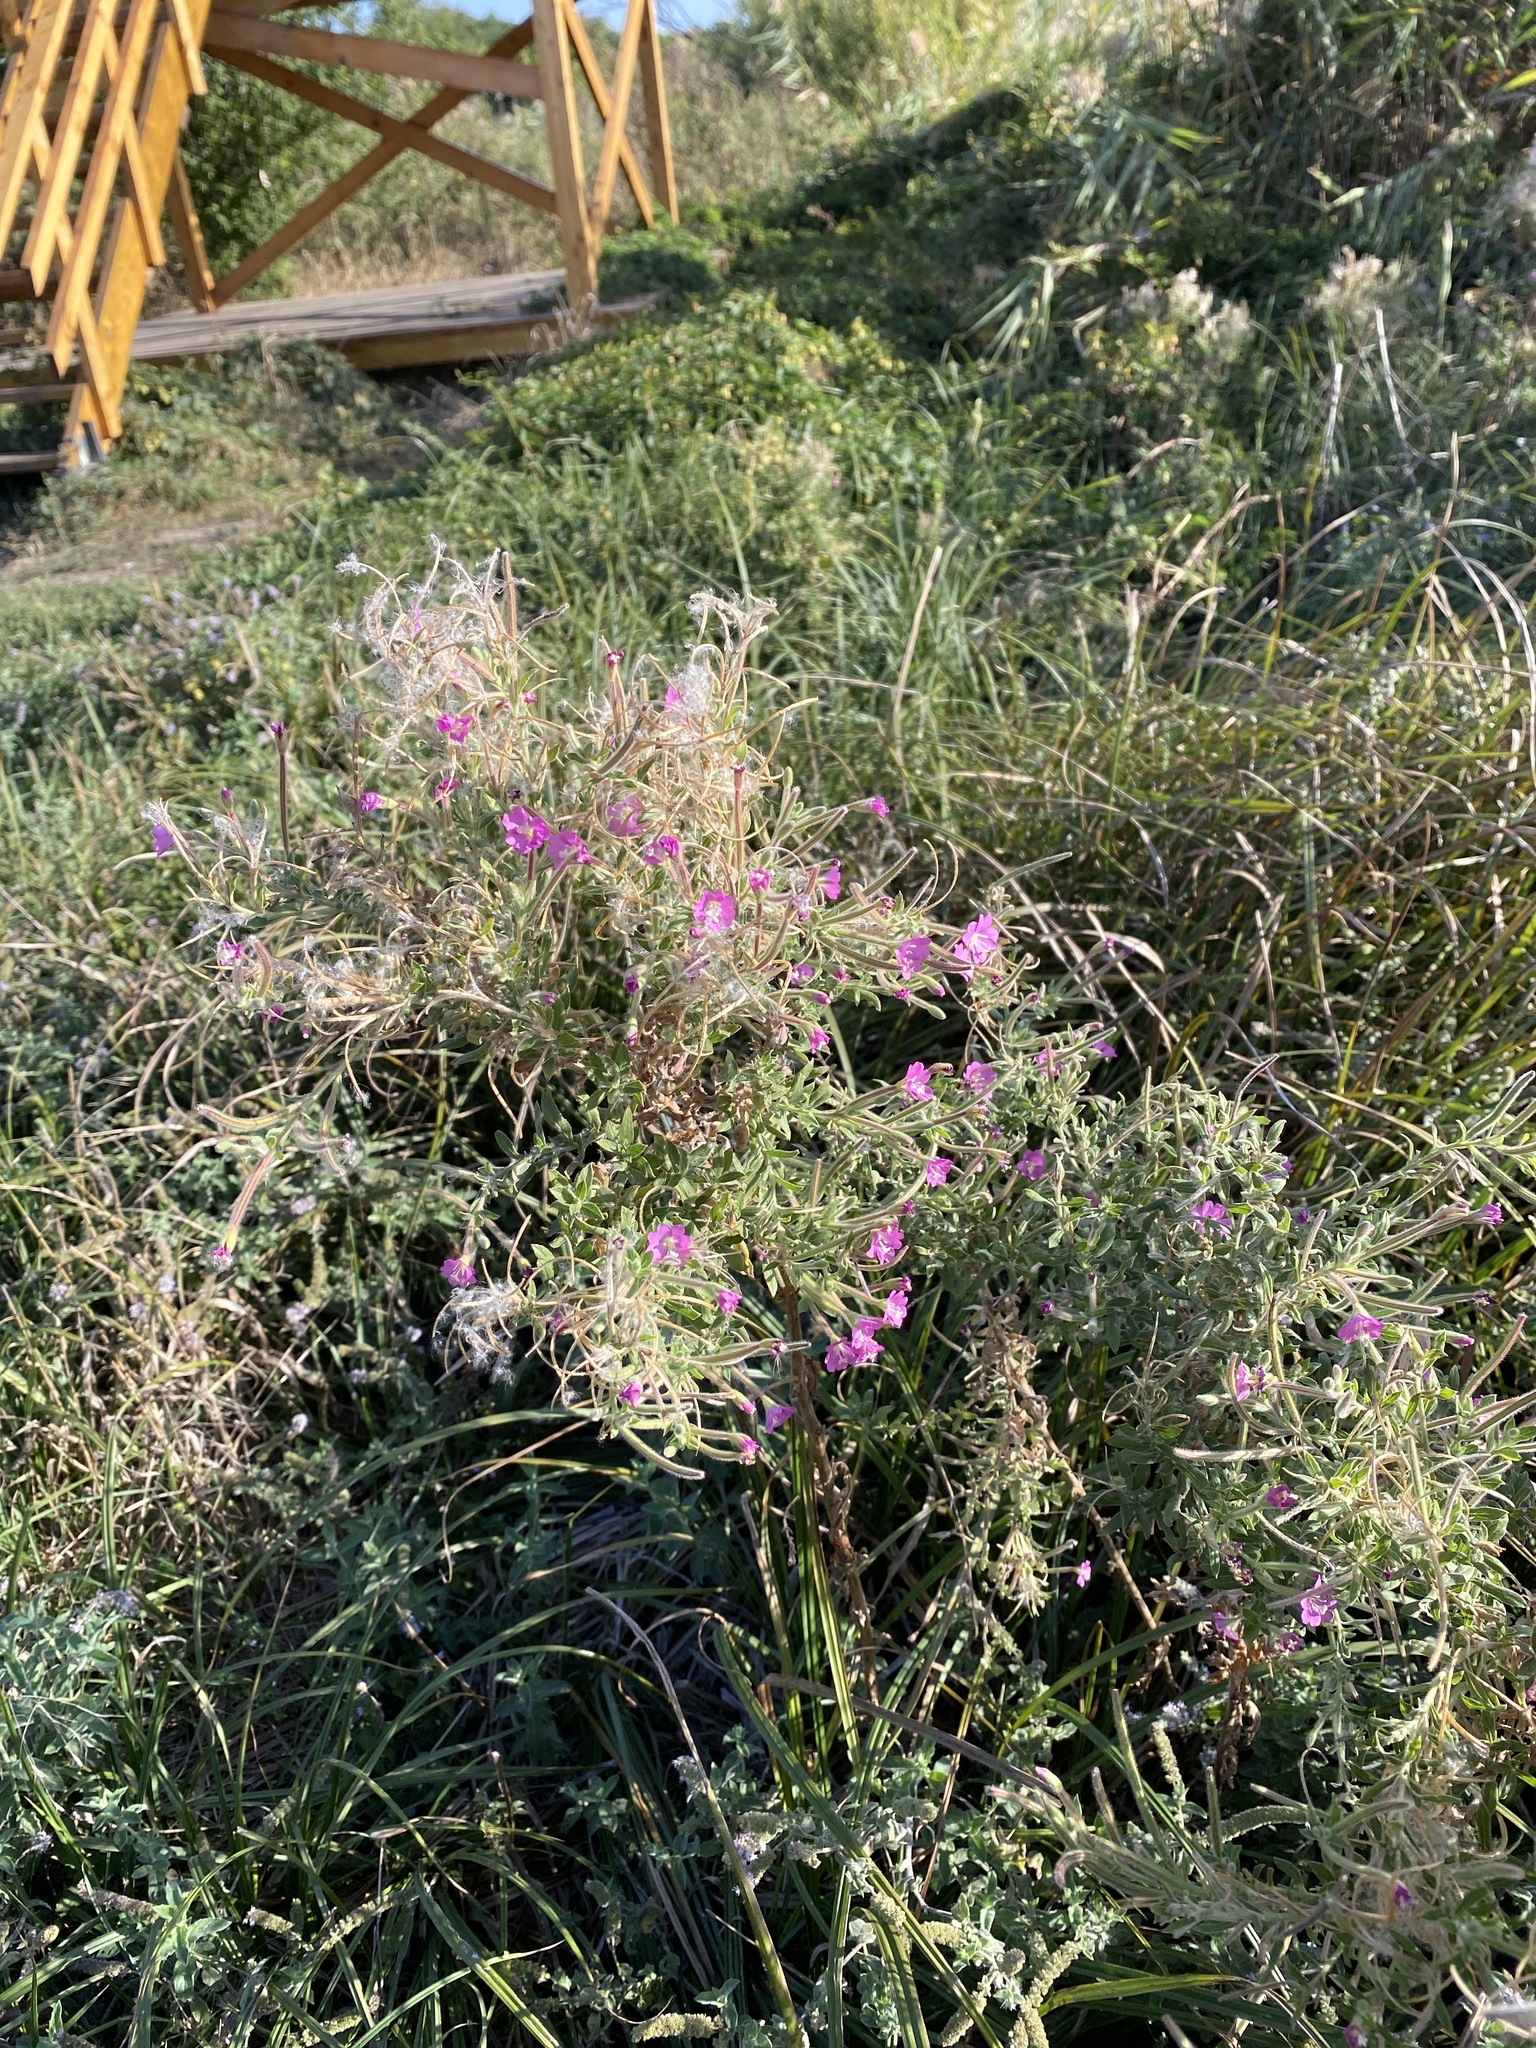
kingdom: Plantae
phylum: Tracheophyta
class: Magnoliopsida
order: Myrtales
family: Onagraceae
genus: Epilobium
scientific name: Epilobium hirsutum
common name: Great willowherb
